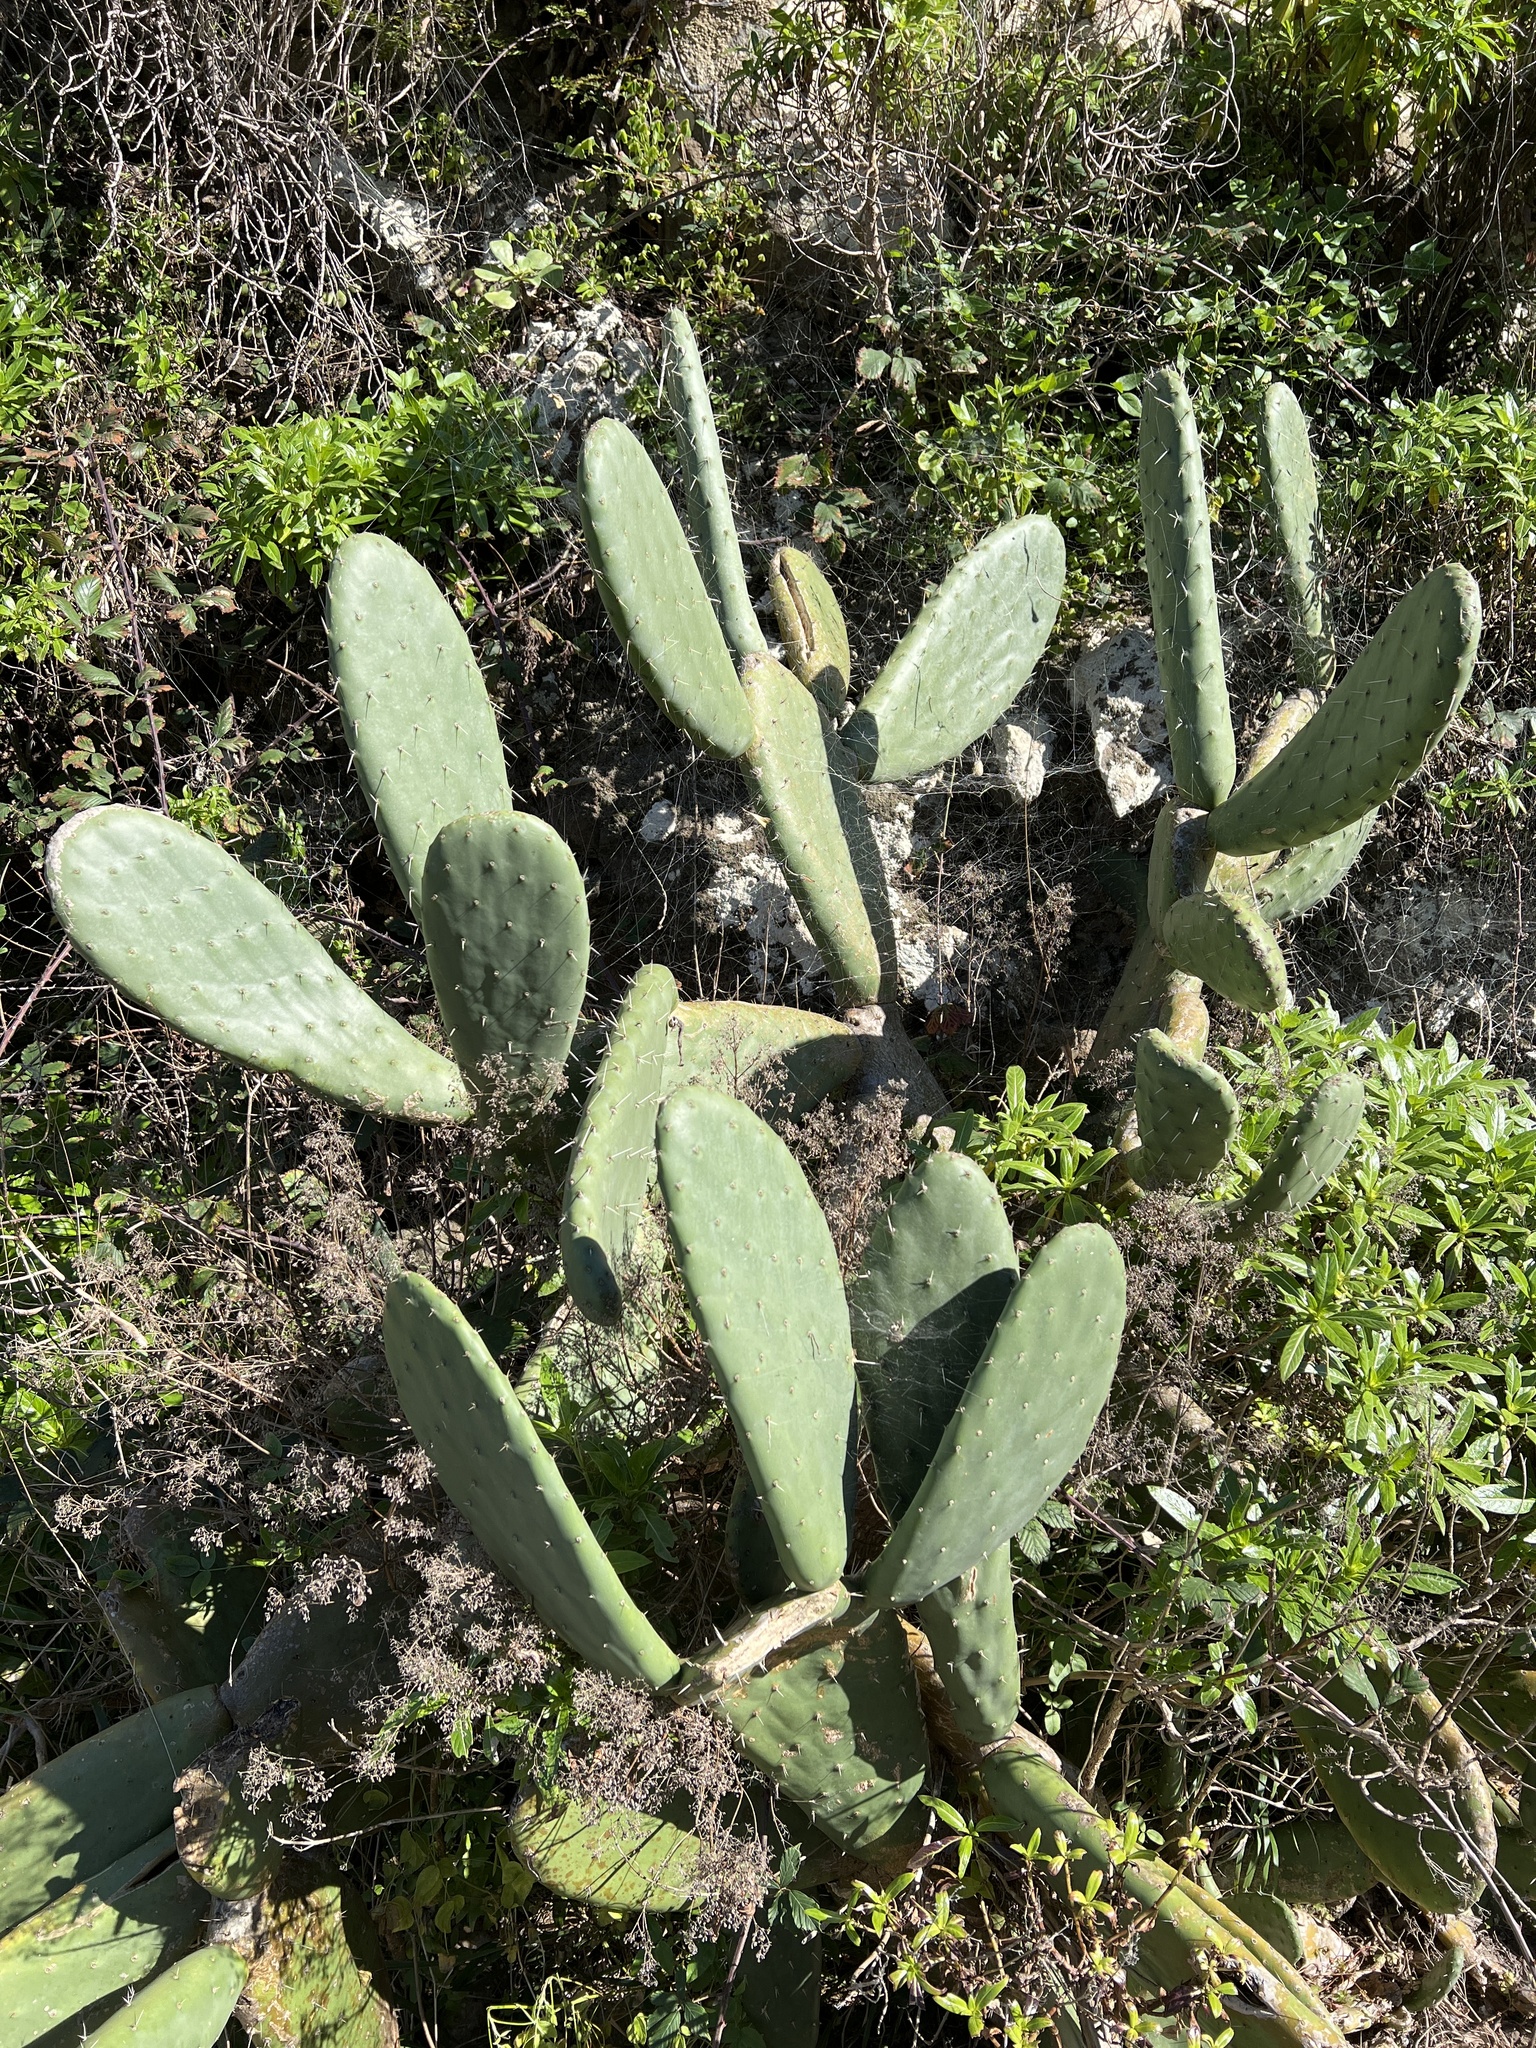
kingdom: Plantae
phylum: Tracheophyta
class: Magnoliopsida
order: Caryophyllales
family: Cactaceae
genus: Opuntia
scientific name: Opuntia ficus-indica
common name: Barbary fig
